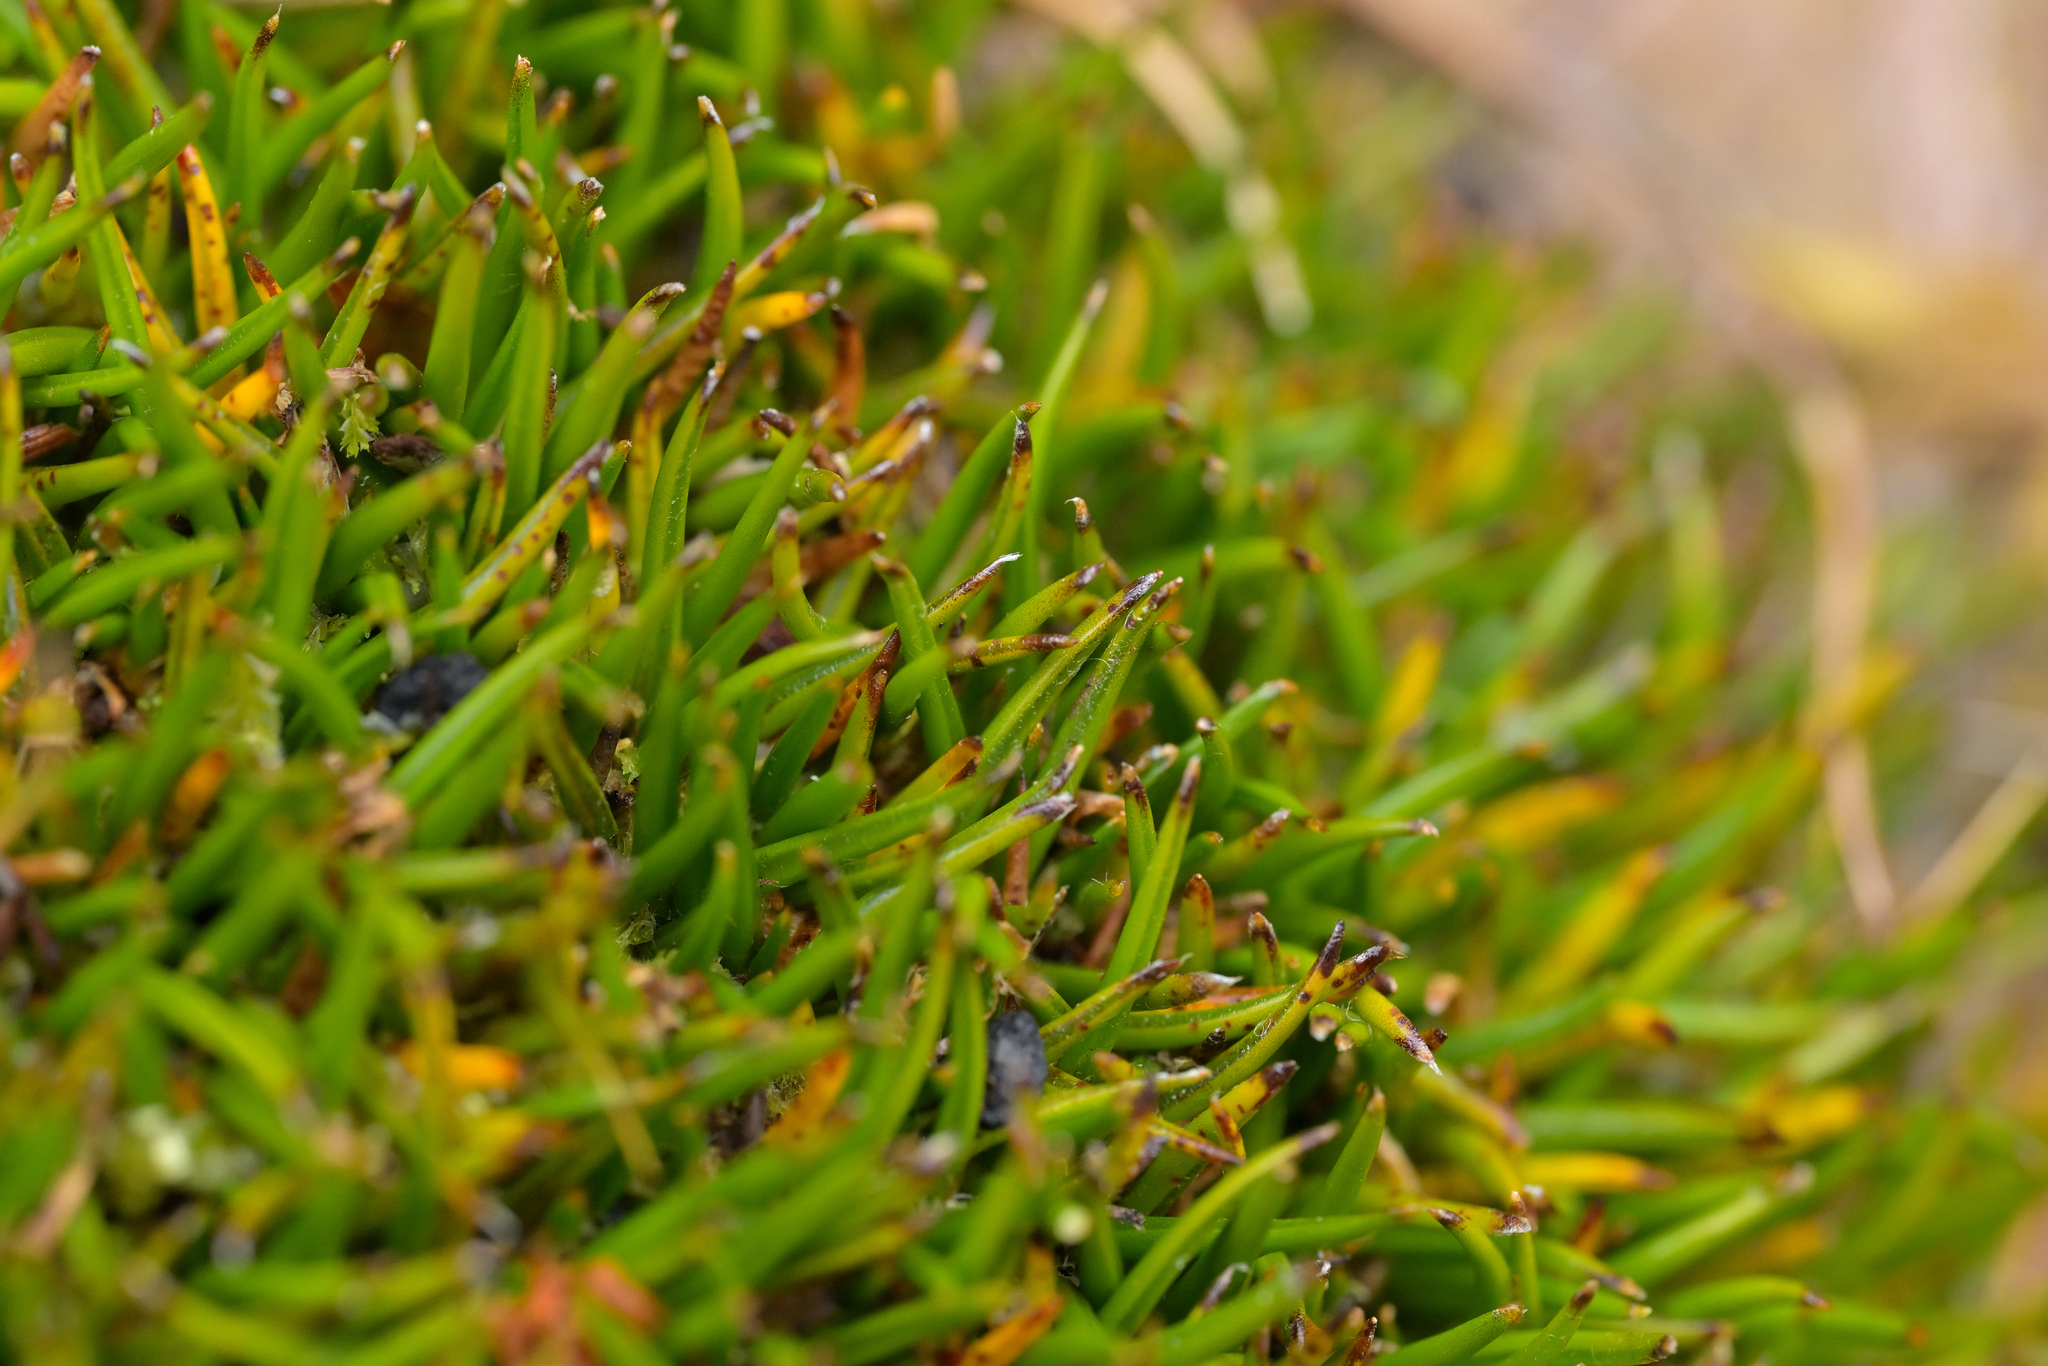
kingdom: Plantae
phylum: Tracheophyta
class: Liliopsida
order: Asparagales
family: Asteliaceae
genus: Astelia
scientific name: Astelia subulata
